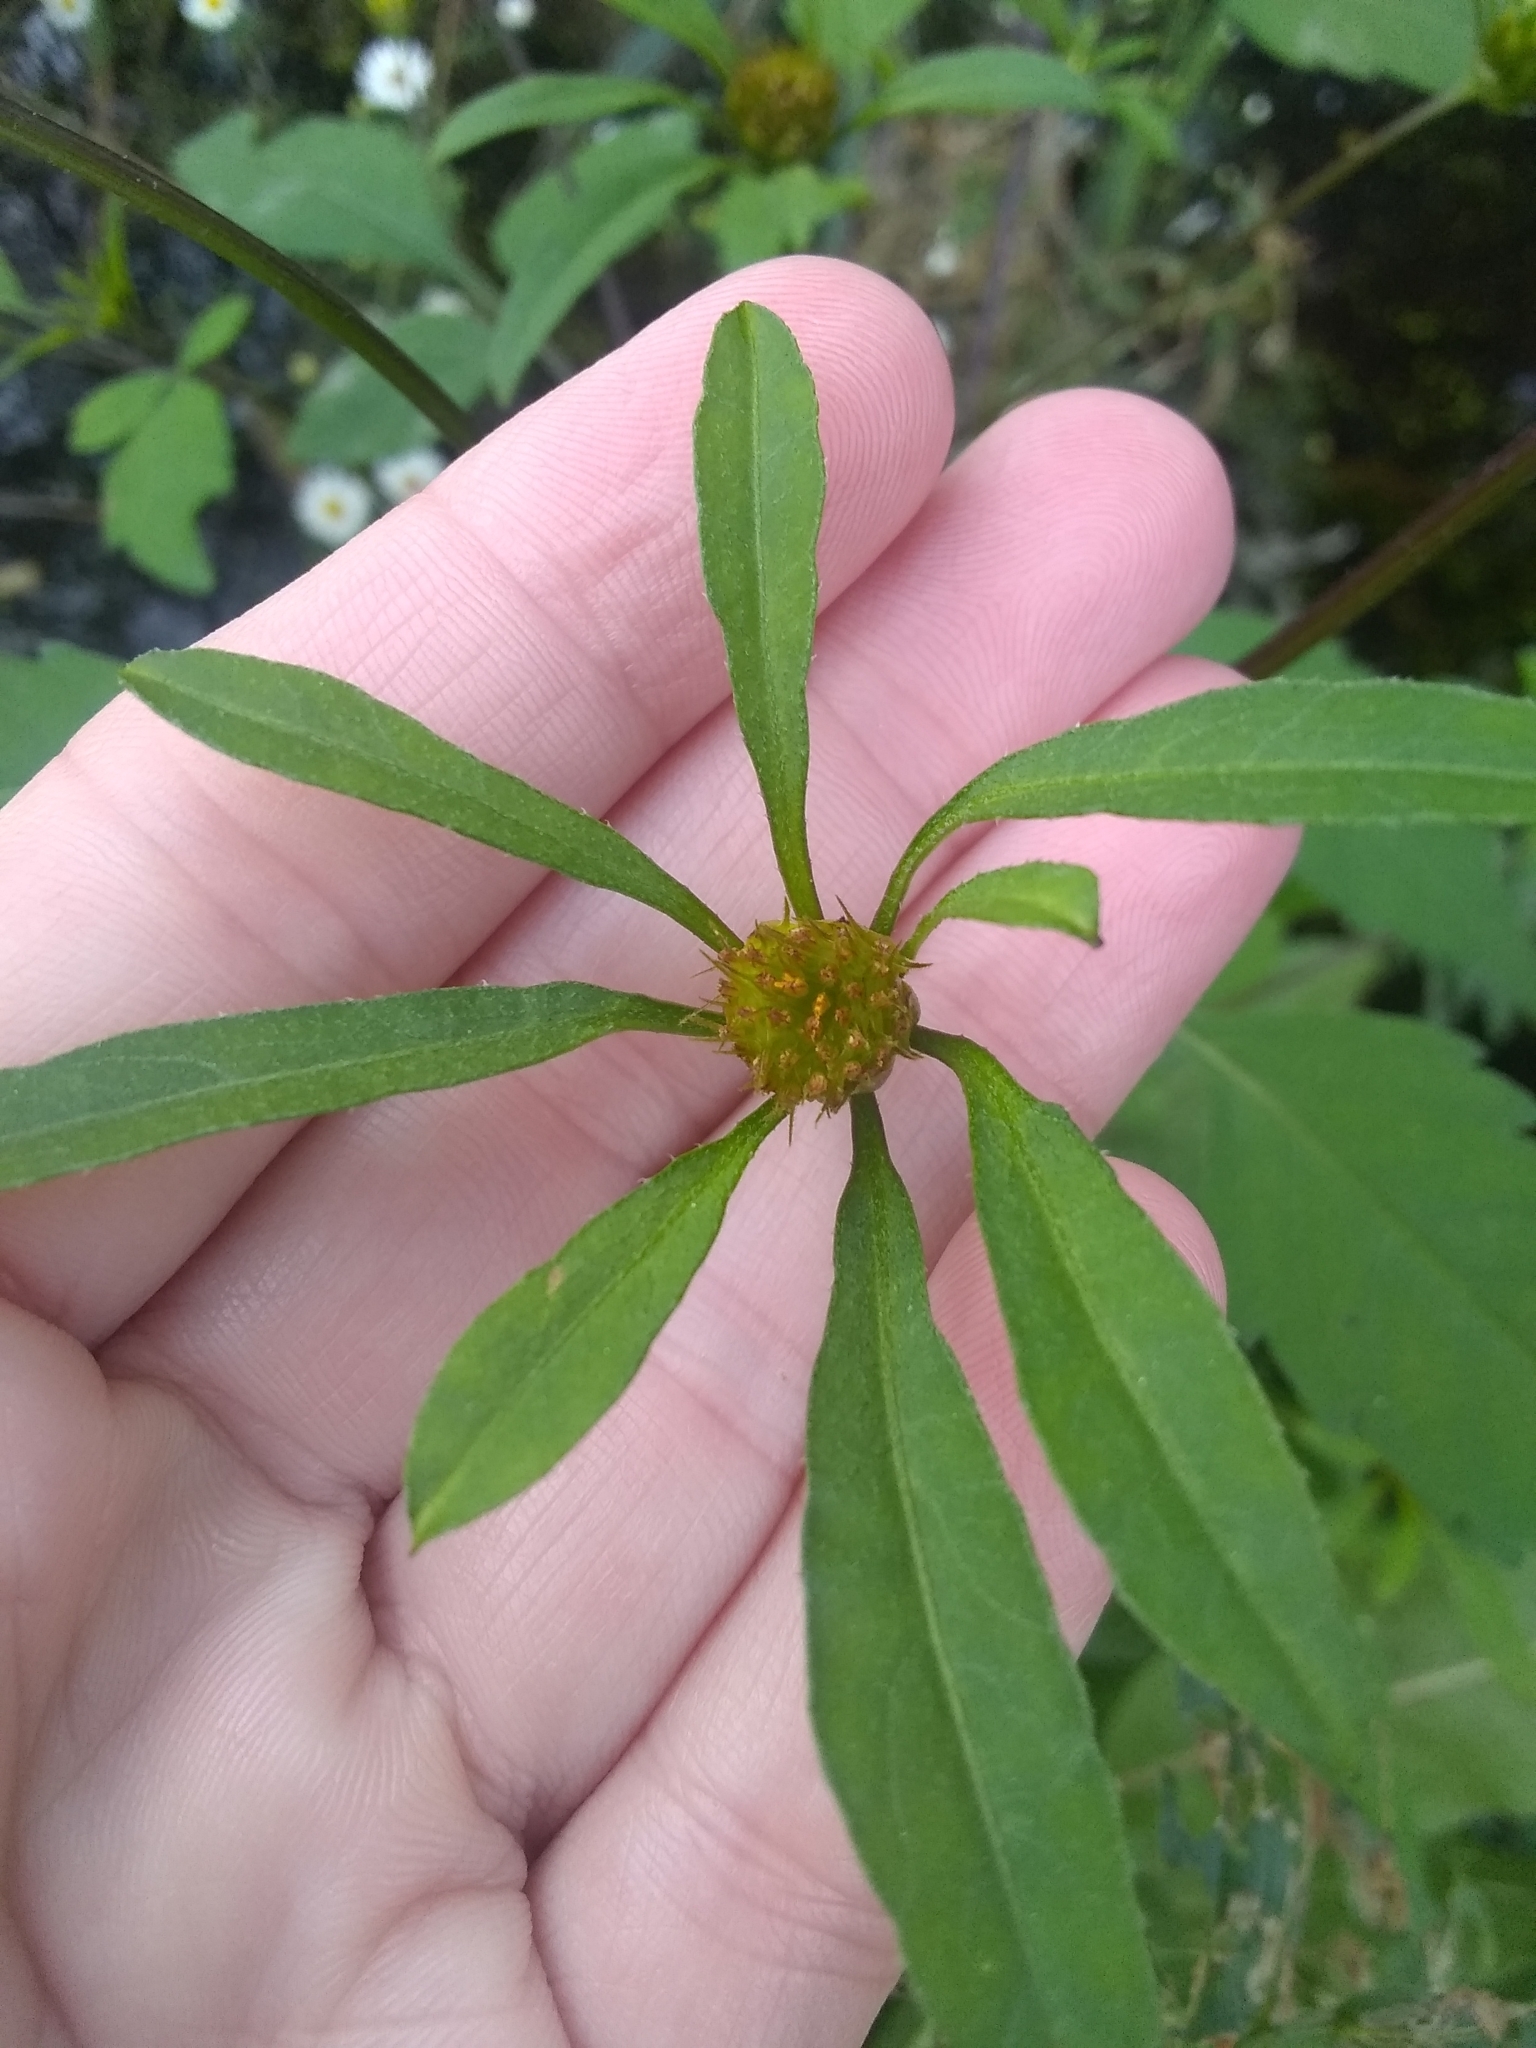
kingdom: Plantae
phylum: Tracheophyta
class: Magnoliopsida
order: Asterales
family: Asteraceae
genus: Bidens
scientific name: Bidens frondosa
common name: Beggarticks
